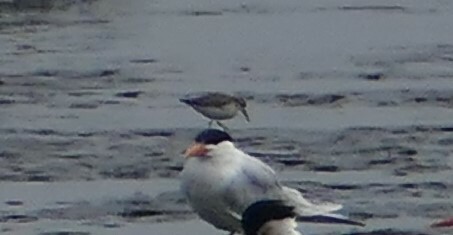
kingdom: Animalia
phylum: Chordata
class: Aves
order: Charadriiformes
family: Laridae
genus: Thalasseus
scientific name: Thalasseus maximus
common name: Royal tern
